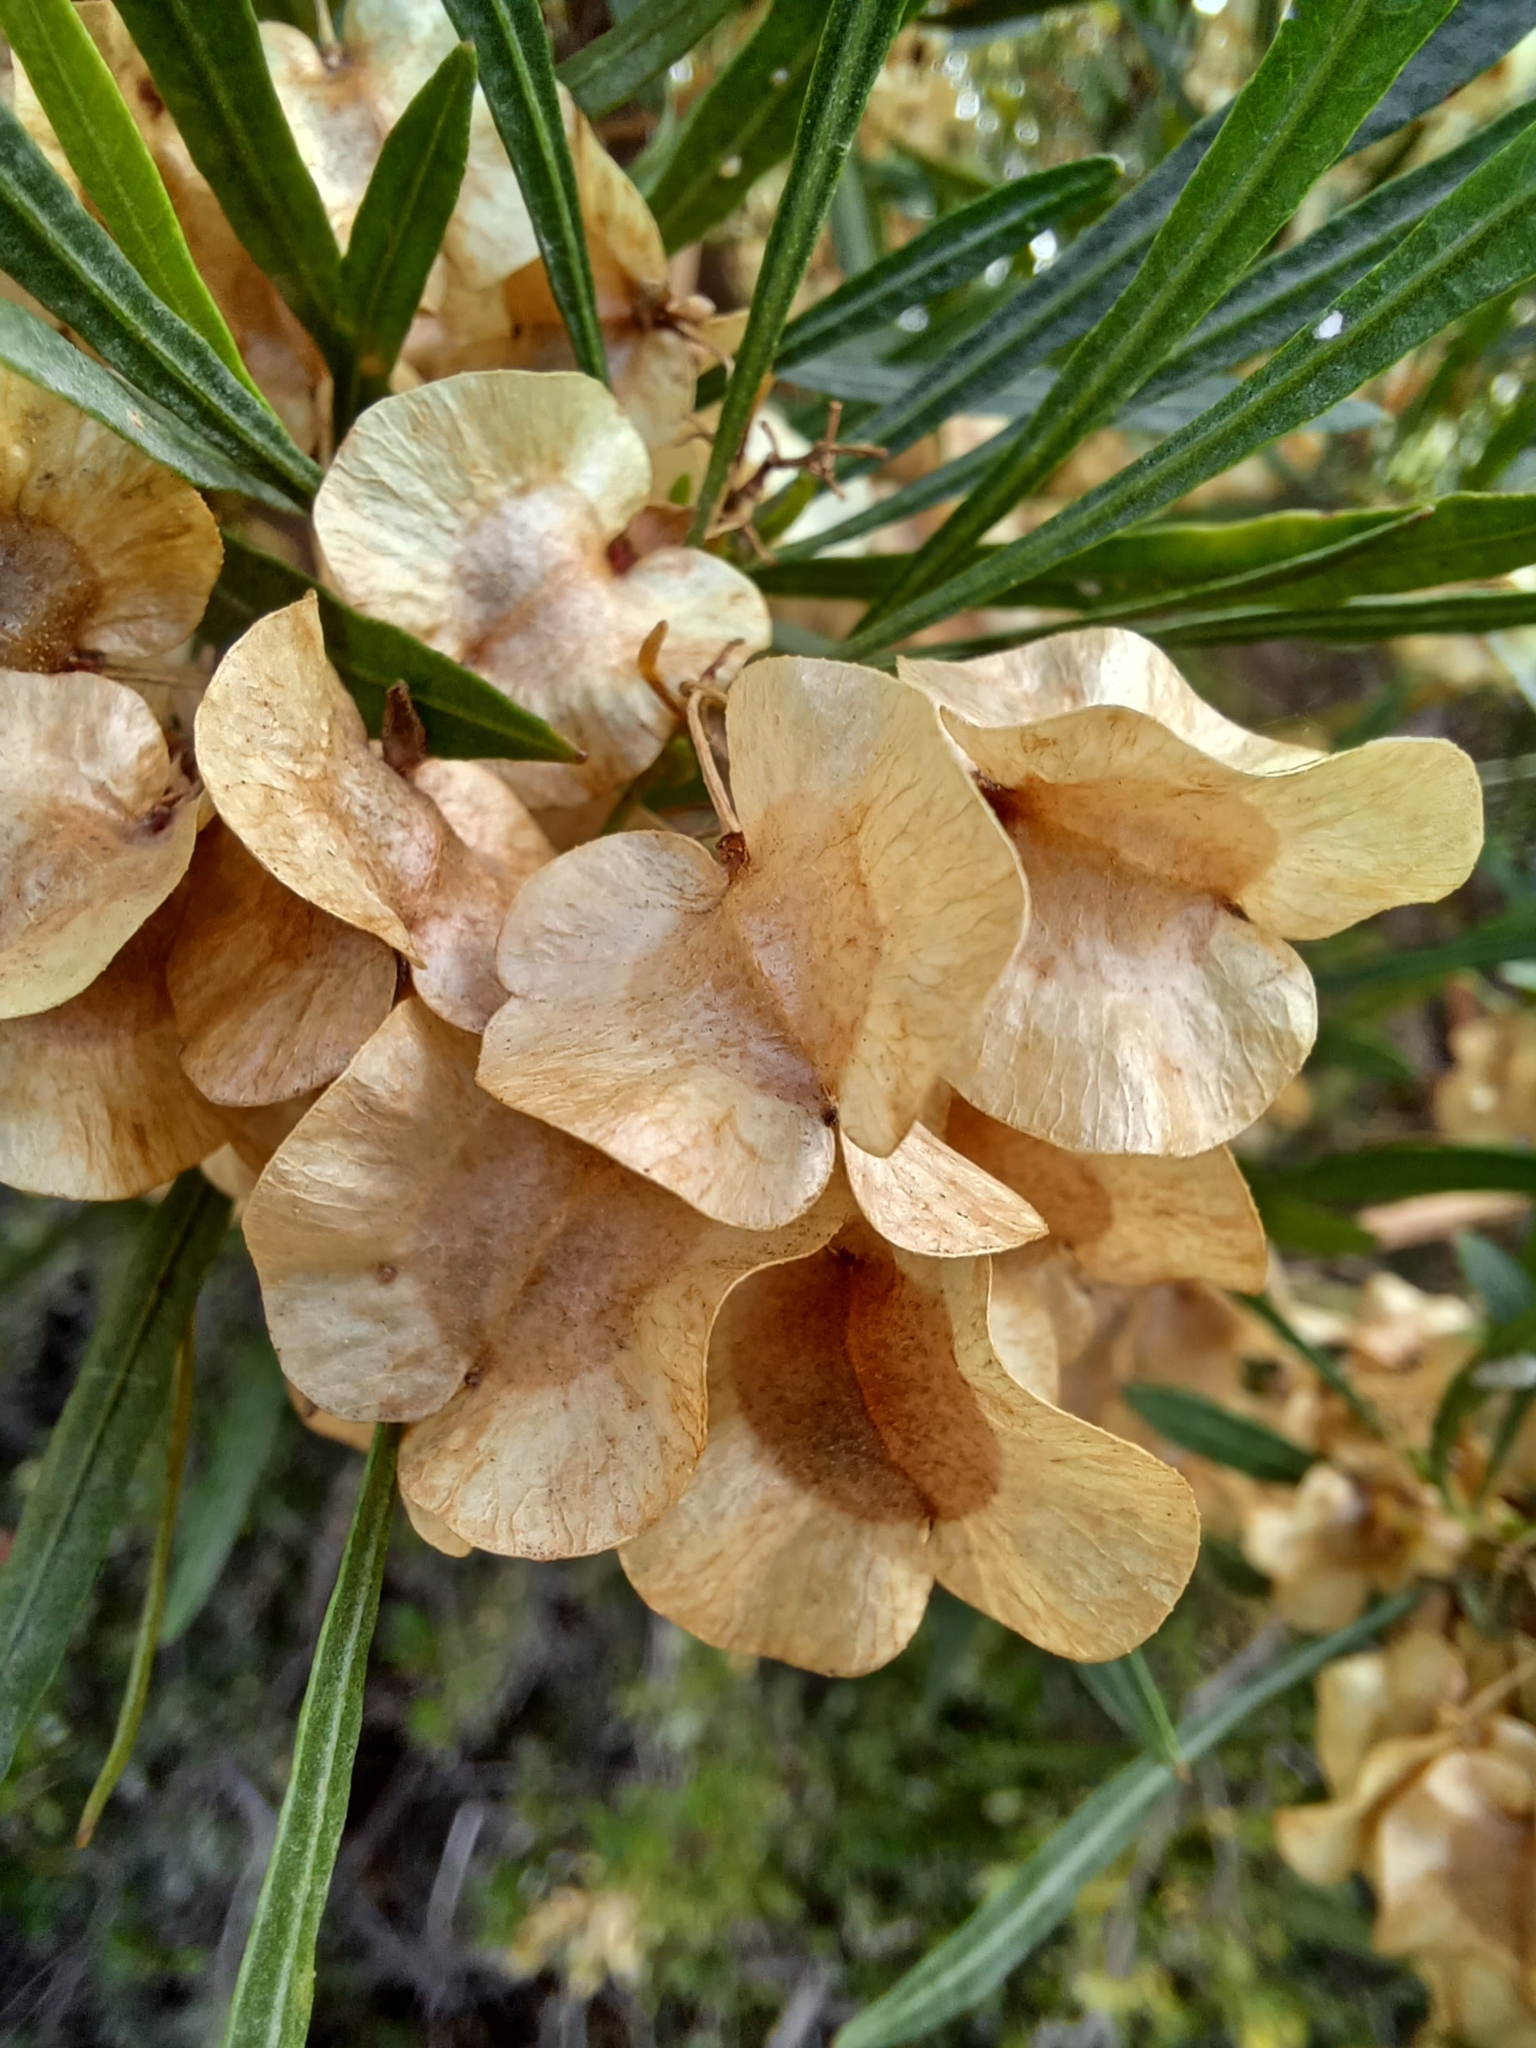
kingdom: Plantae
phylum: Tracheophyta
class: Magnoliopsida
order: Sapindales
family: Sapindaceae
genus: Dodonaea
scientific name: Dodonaea viscosa
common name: Hopbush
